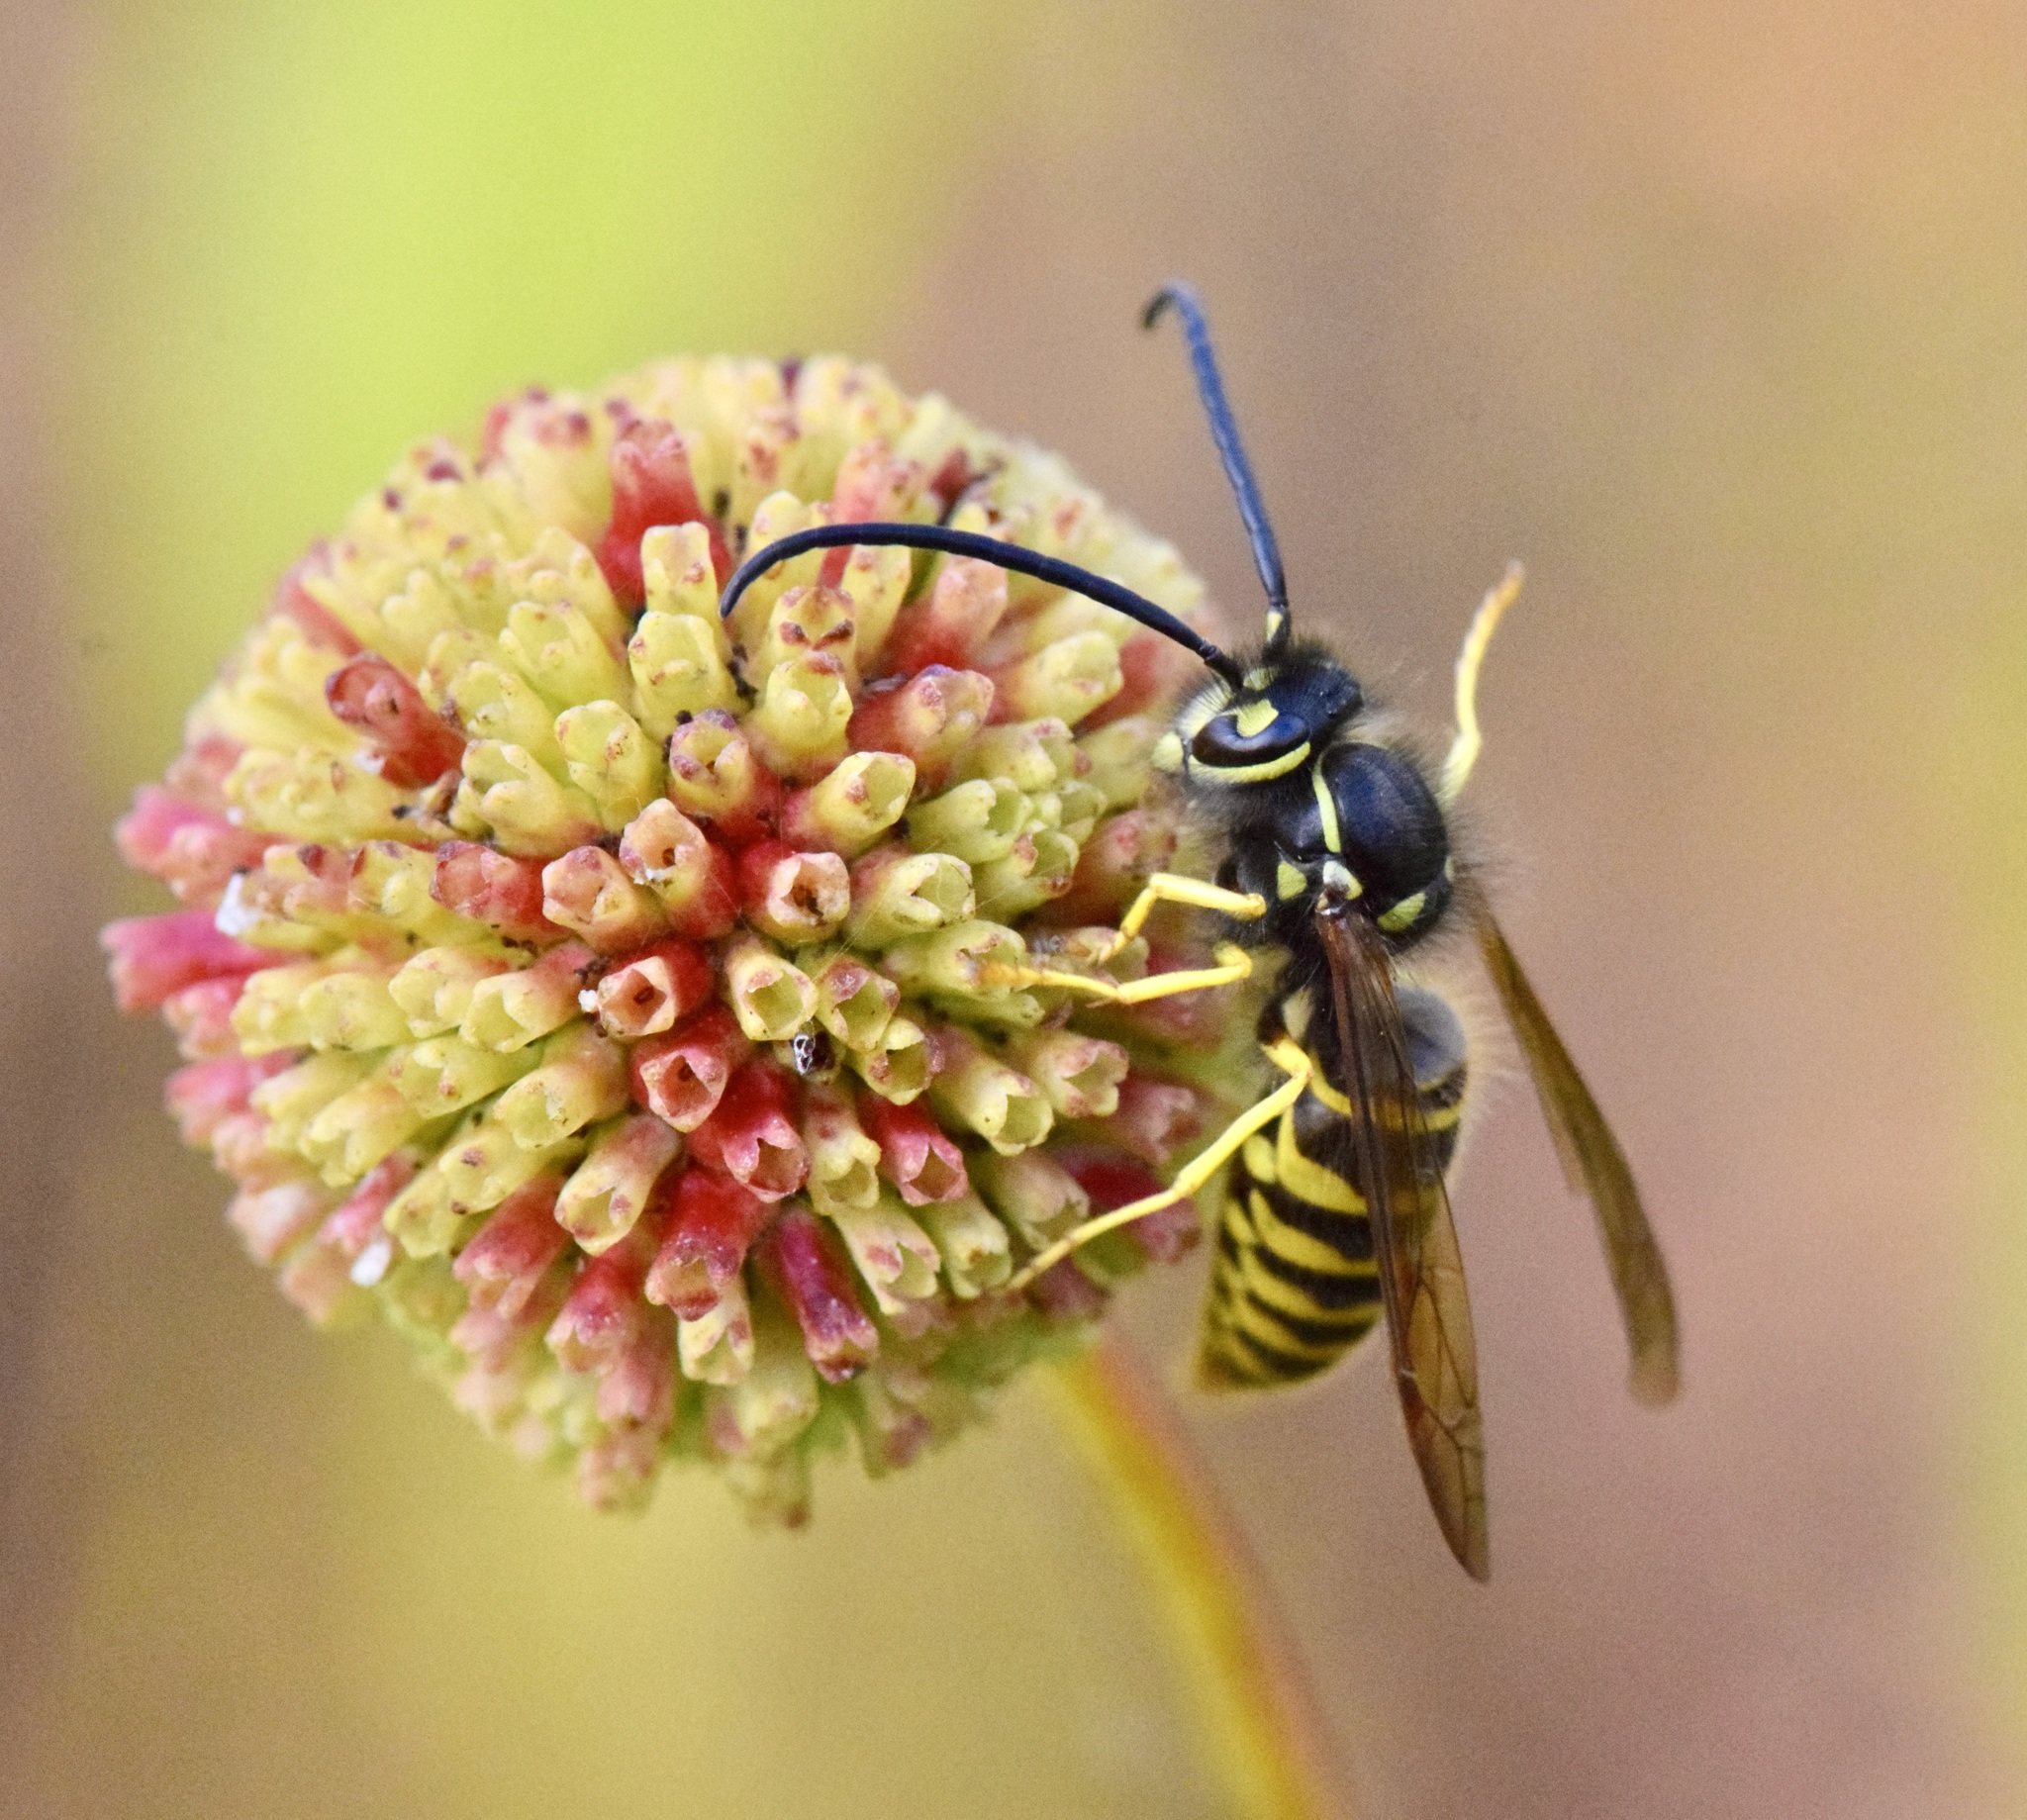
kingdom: Animalia
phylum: Arthropoda
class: Insecta
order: Hymenoptera
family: Vespidae
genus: Vespula
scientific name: Vespula maculifrons
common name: Eastern yellowjacket
